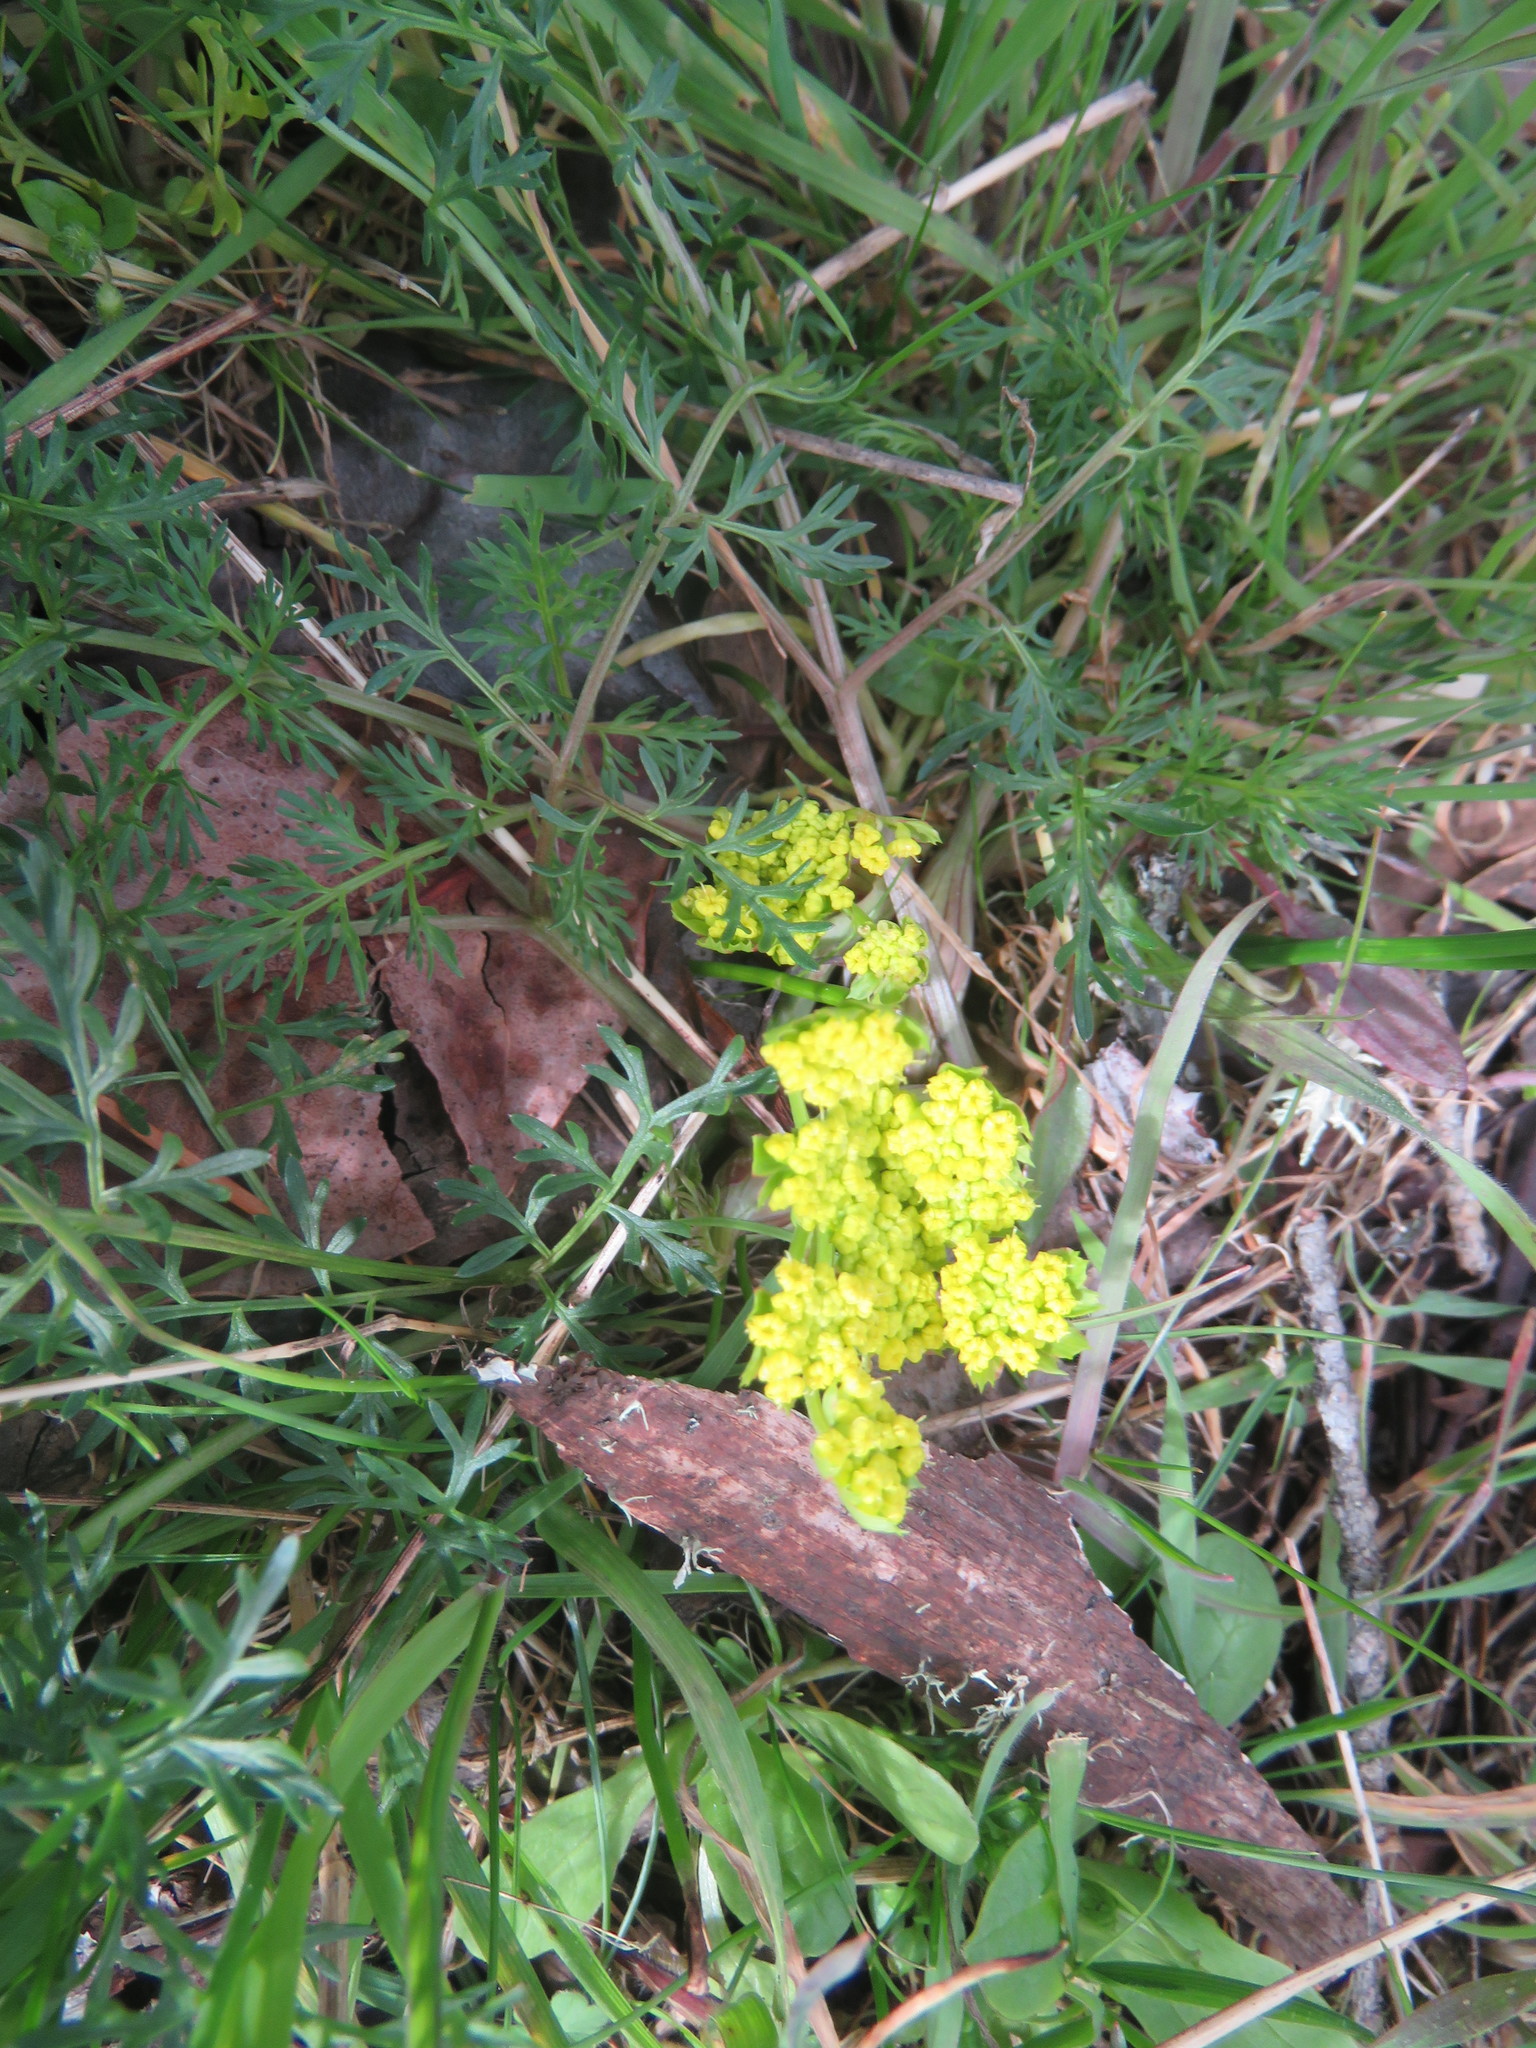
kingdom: Plantae
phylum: Tracheophyta
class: Magnoliopsida
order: Apiales
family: Apiaceae
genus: Lomatium
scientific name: Lomatium utriculatum
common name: Fine-leaf desert-parsley
